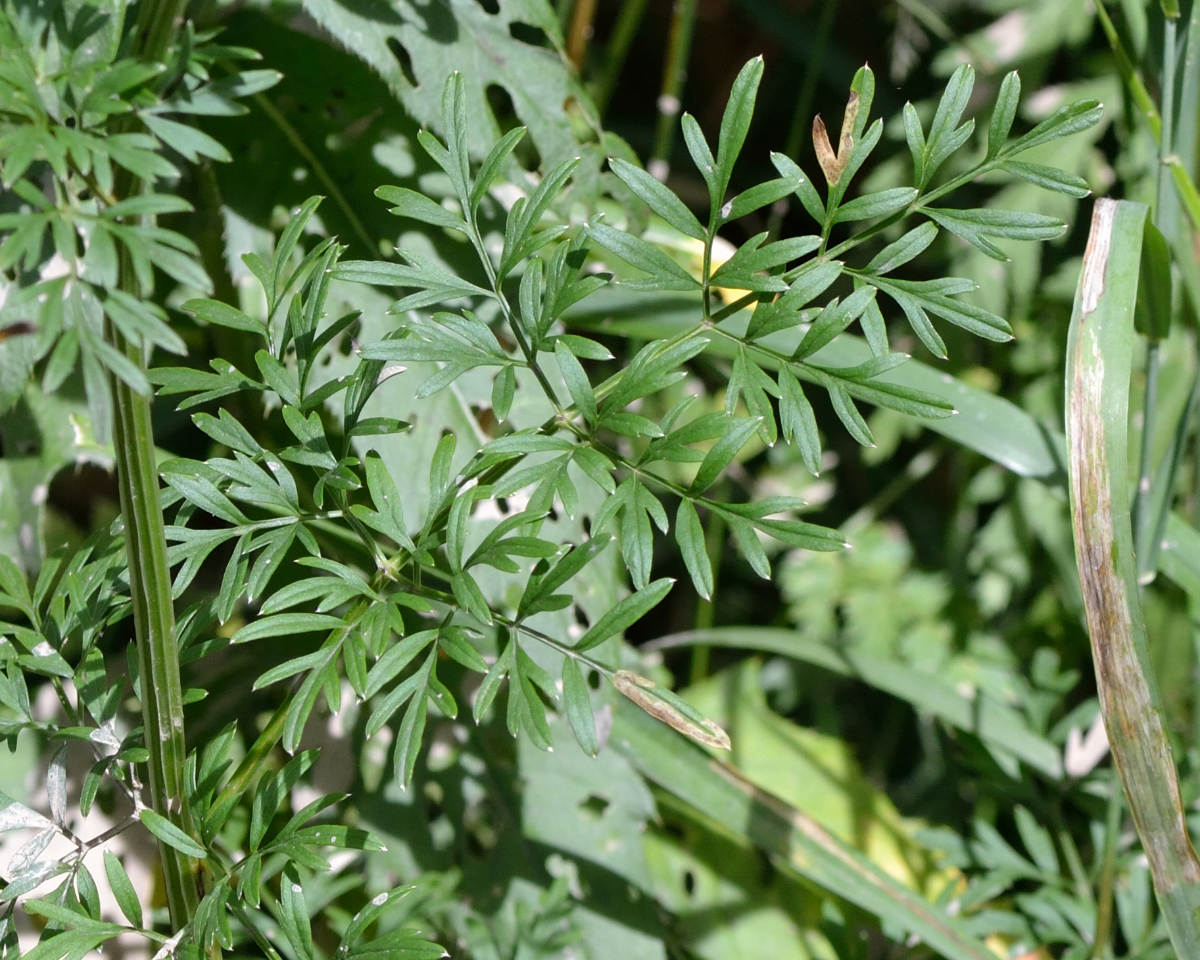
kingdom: Plantae
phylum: Tracheophyta
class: Magnoliopsida
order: Apiales
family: Apiaceae
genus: Selinum
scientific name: Selinum carvifolia
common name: Cambridge milk-parsley
